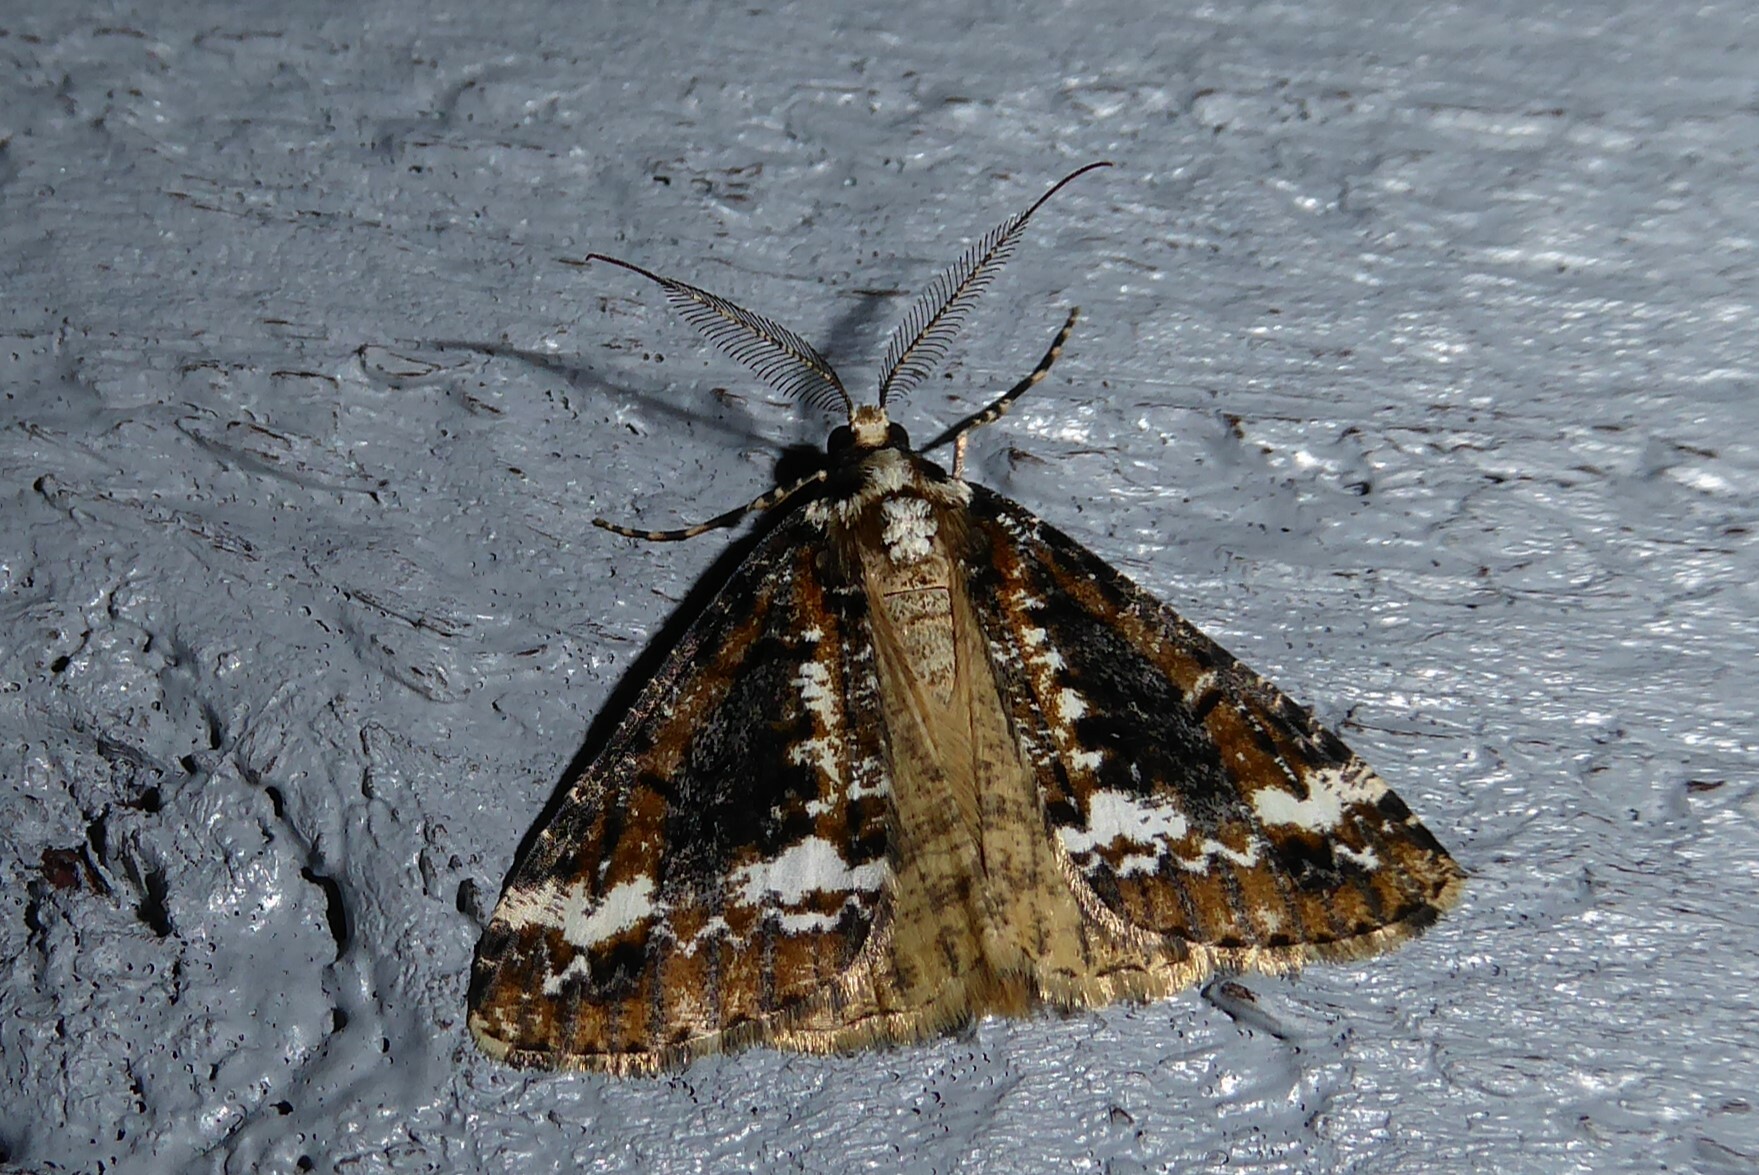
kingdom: Animalia
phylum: Arthropoda
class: Insecta
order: Lepidoptera
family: Geometridae
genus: Pseudocoremia
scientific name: Pseudocoremia leucelaea
